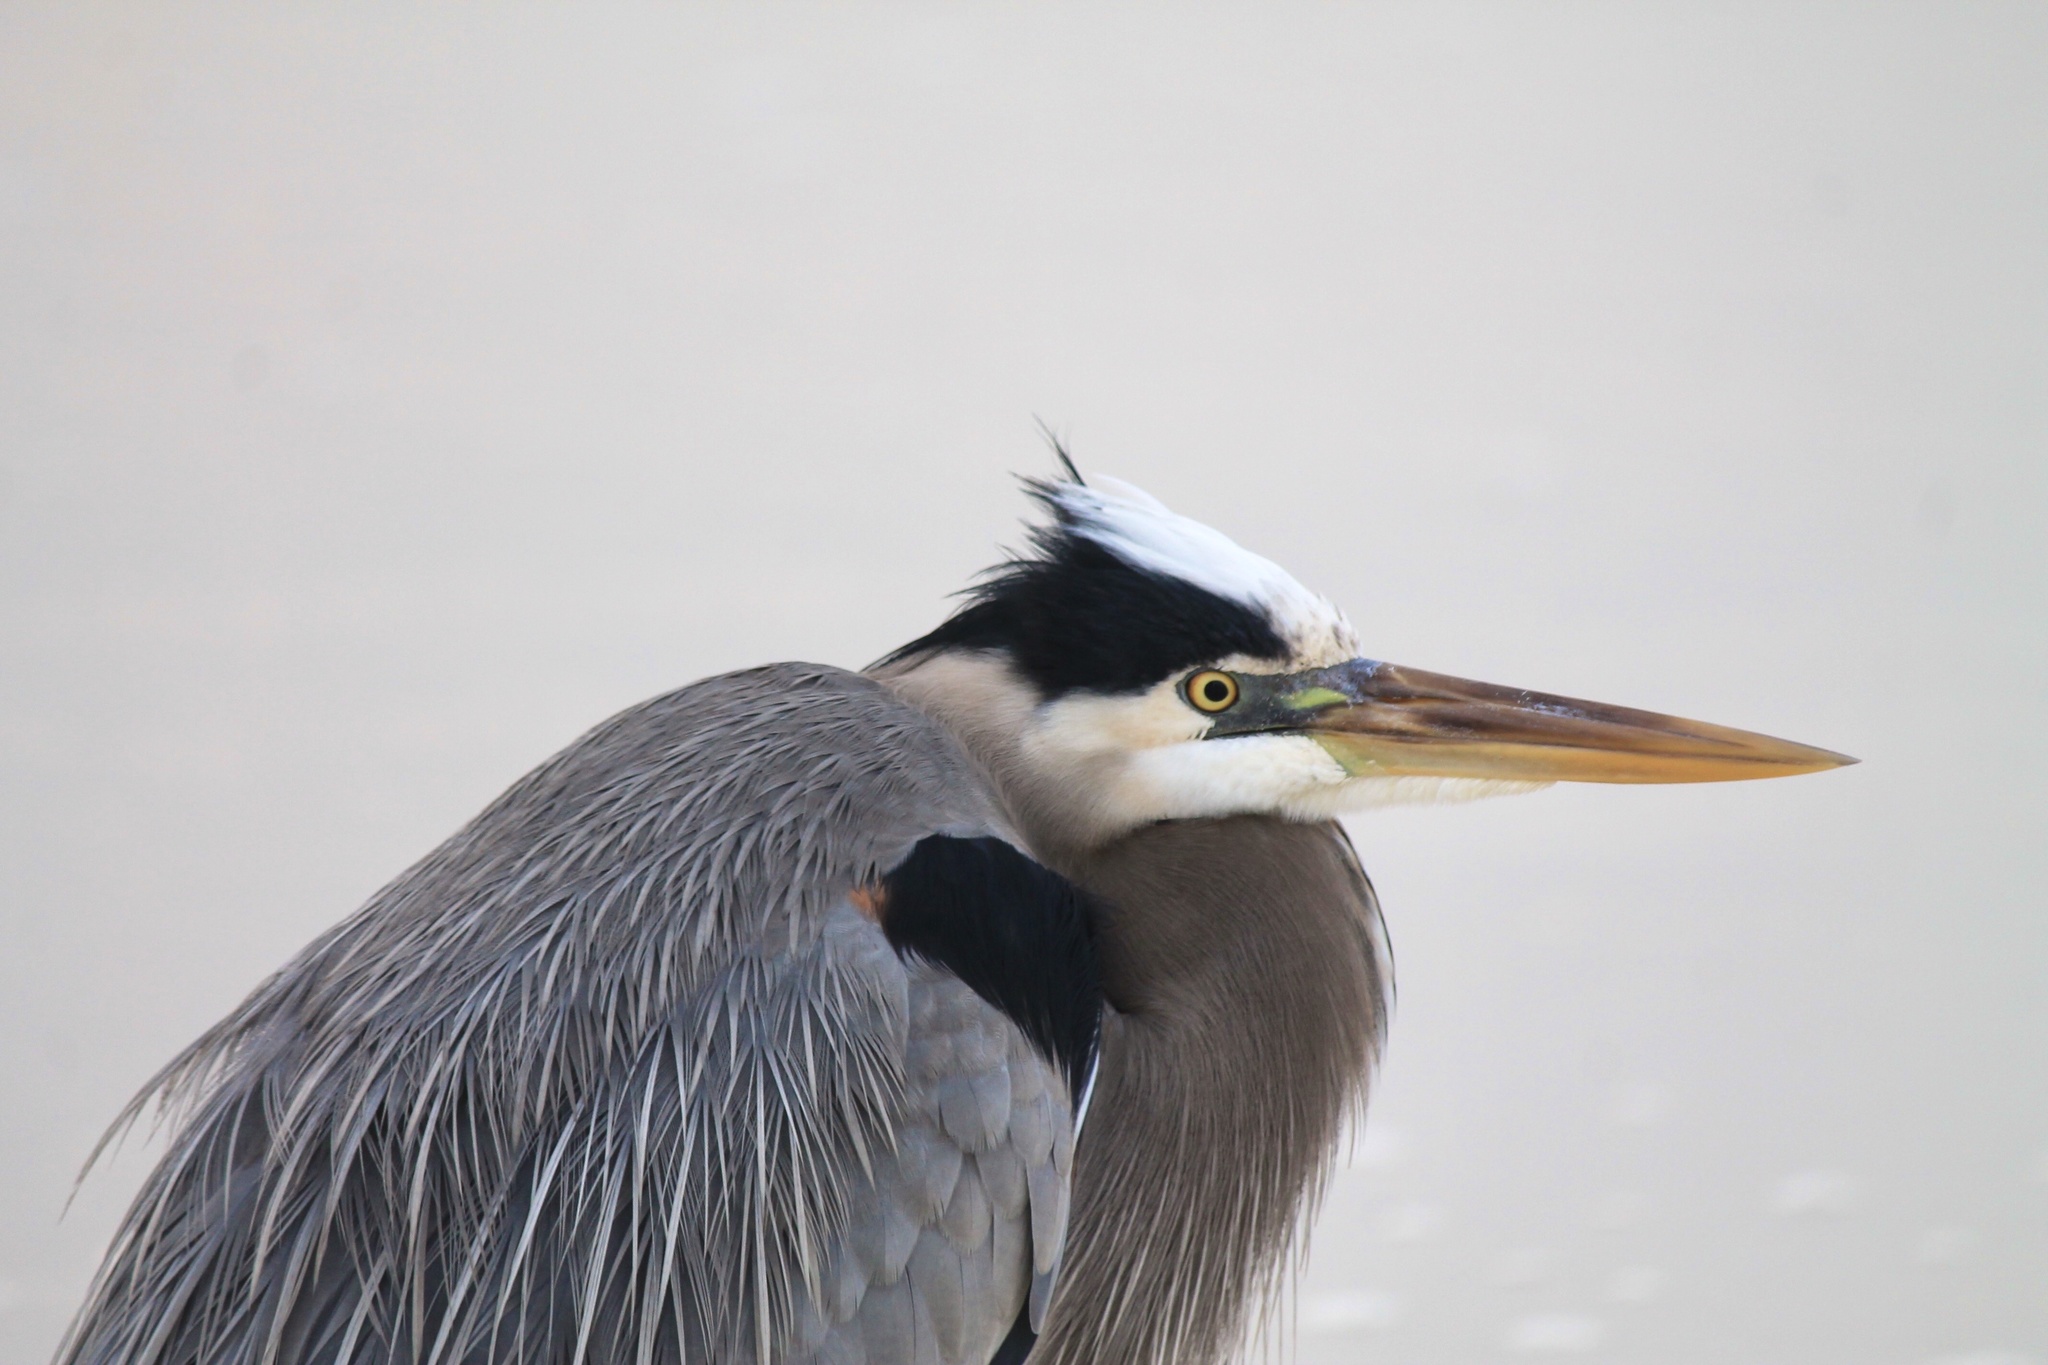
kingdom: Animalia
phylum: Chordata
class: Aves
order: Pelecaniformes
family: Ardeidae
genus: Ardea
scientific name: Ardea herodias
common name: Great blue heron
